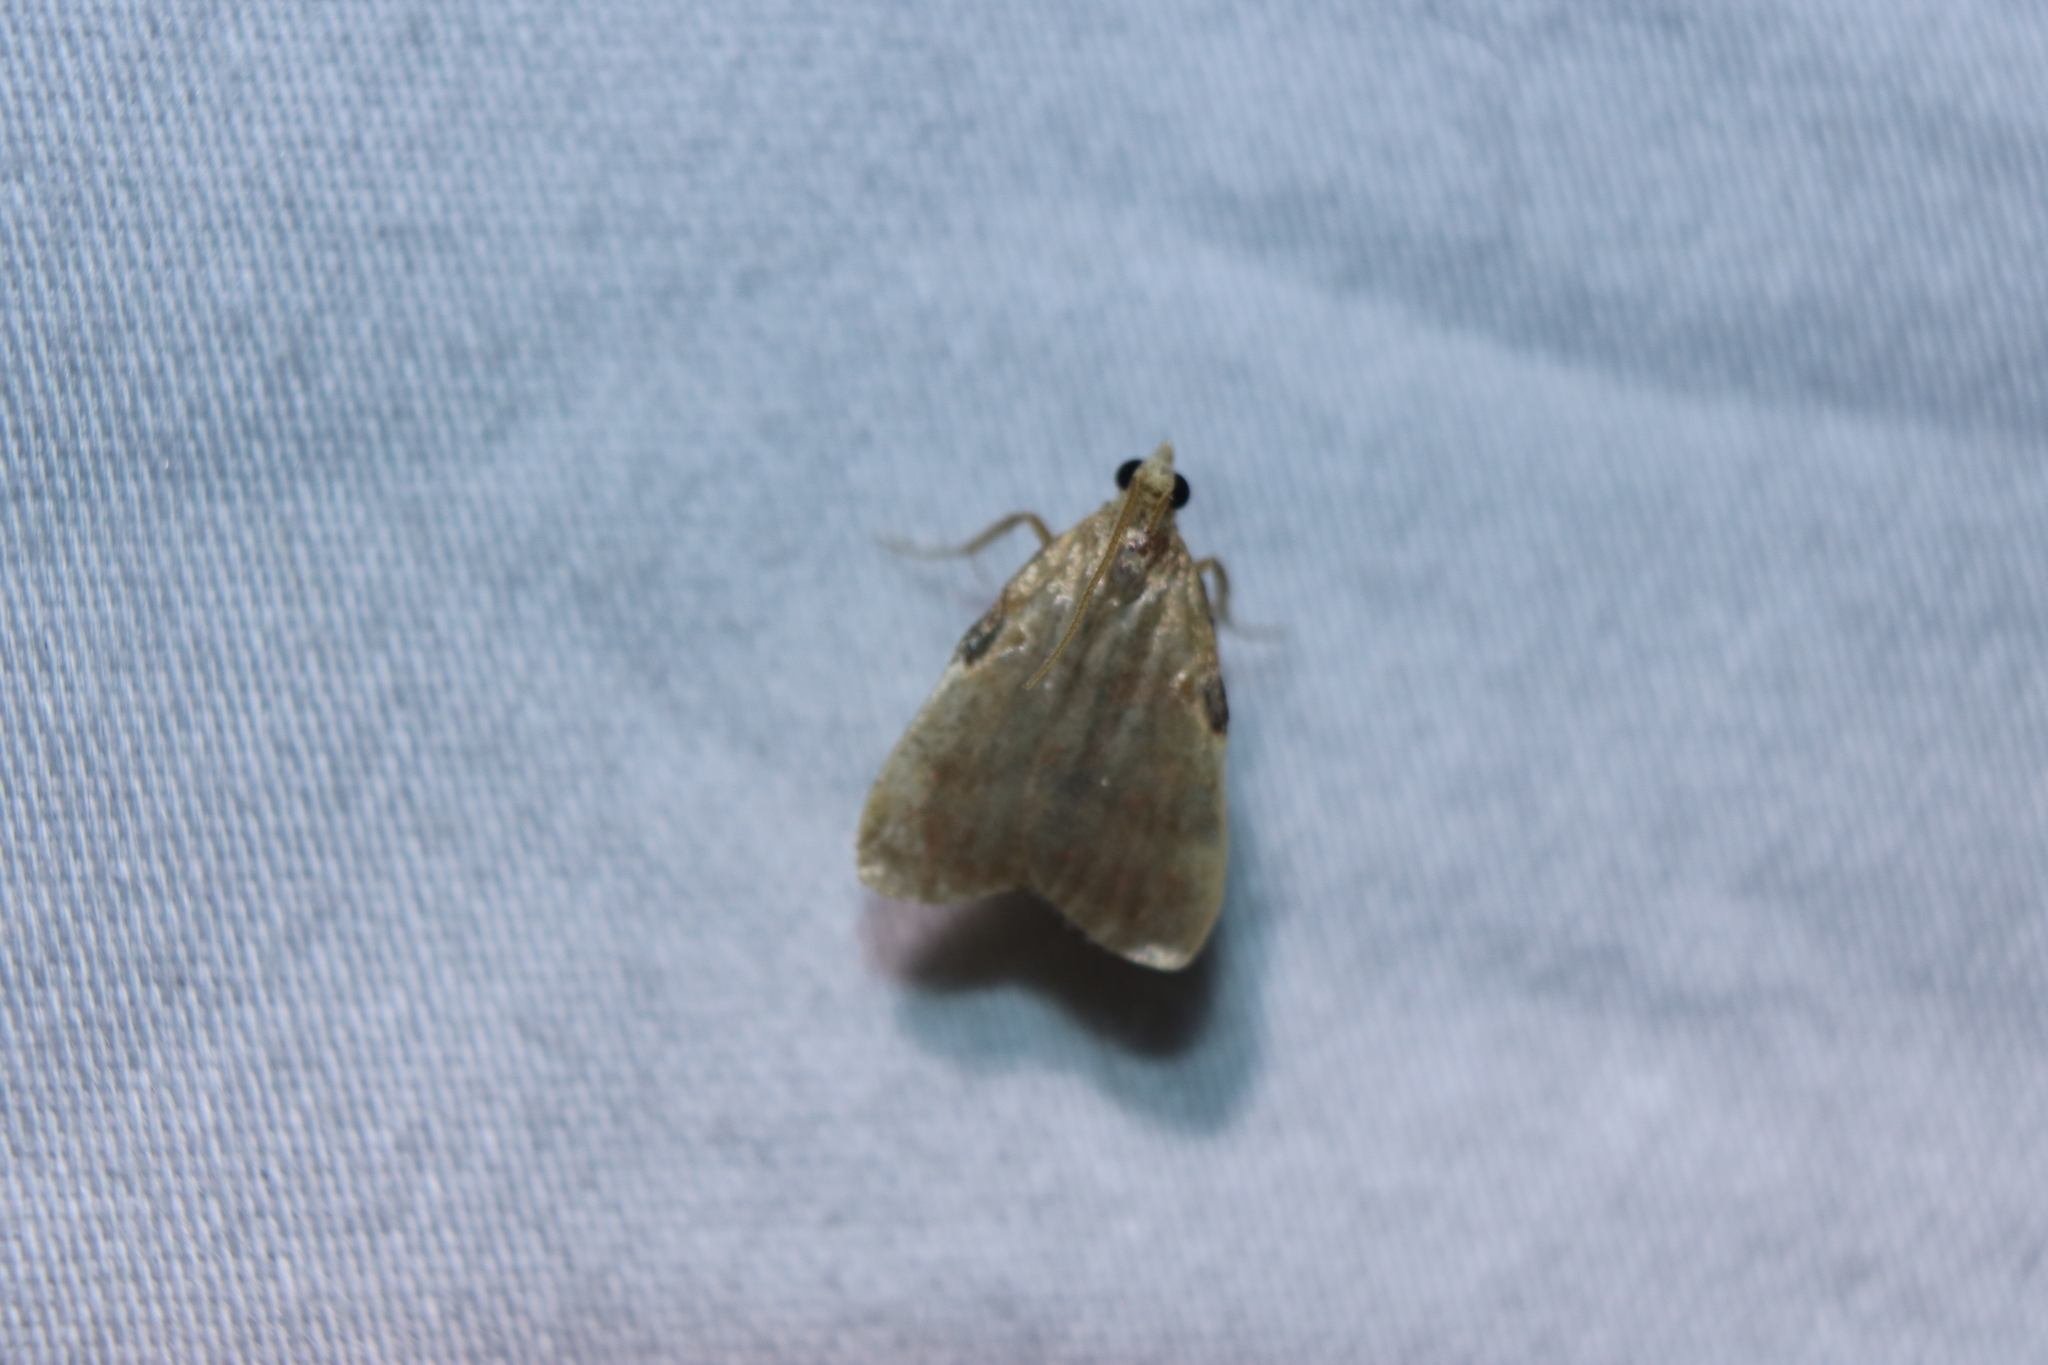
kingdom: Animalia
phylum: Arthropoda
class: Insecta
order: Lepidoptera
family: Pyralidae
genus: Condylolomia
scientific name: Condylolomia participialis
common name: Drab condylolomia moth
